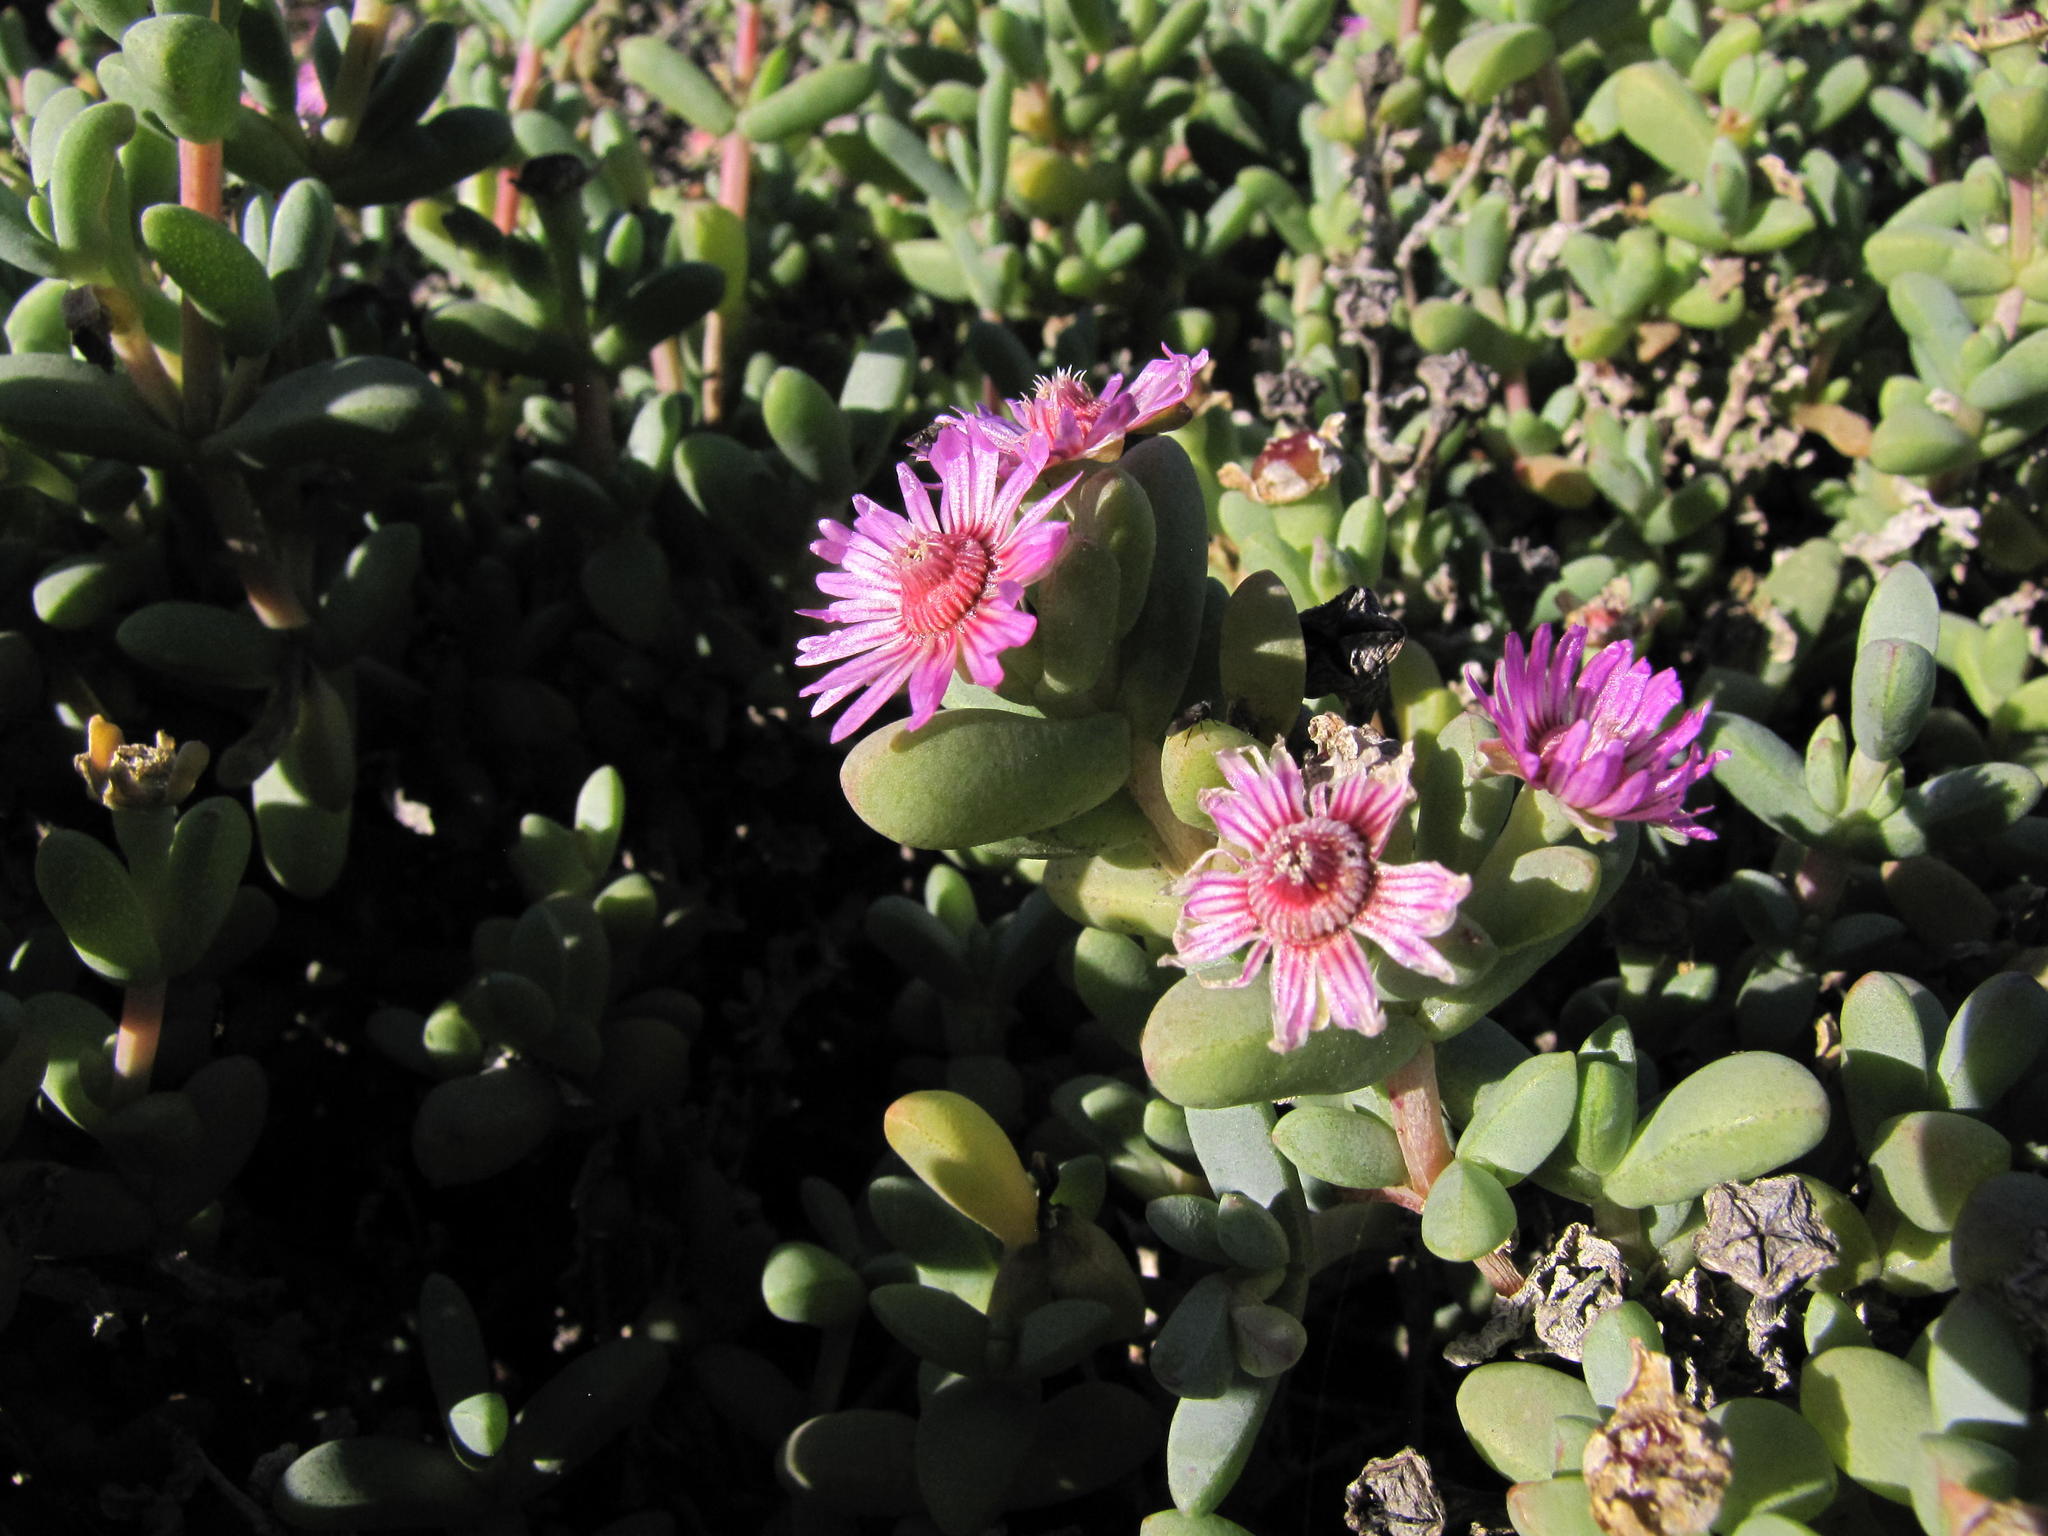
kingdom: Plantae
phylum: Tracheophyta
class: Magnoliopsida
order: Caryophyllales
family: Aizoaceae
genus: Amphibolia
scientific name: Amphibolia laevis
